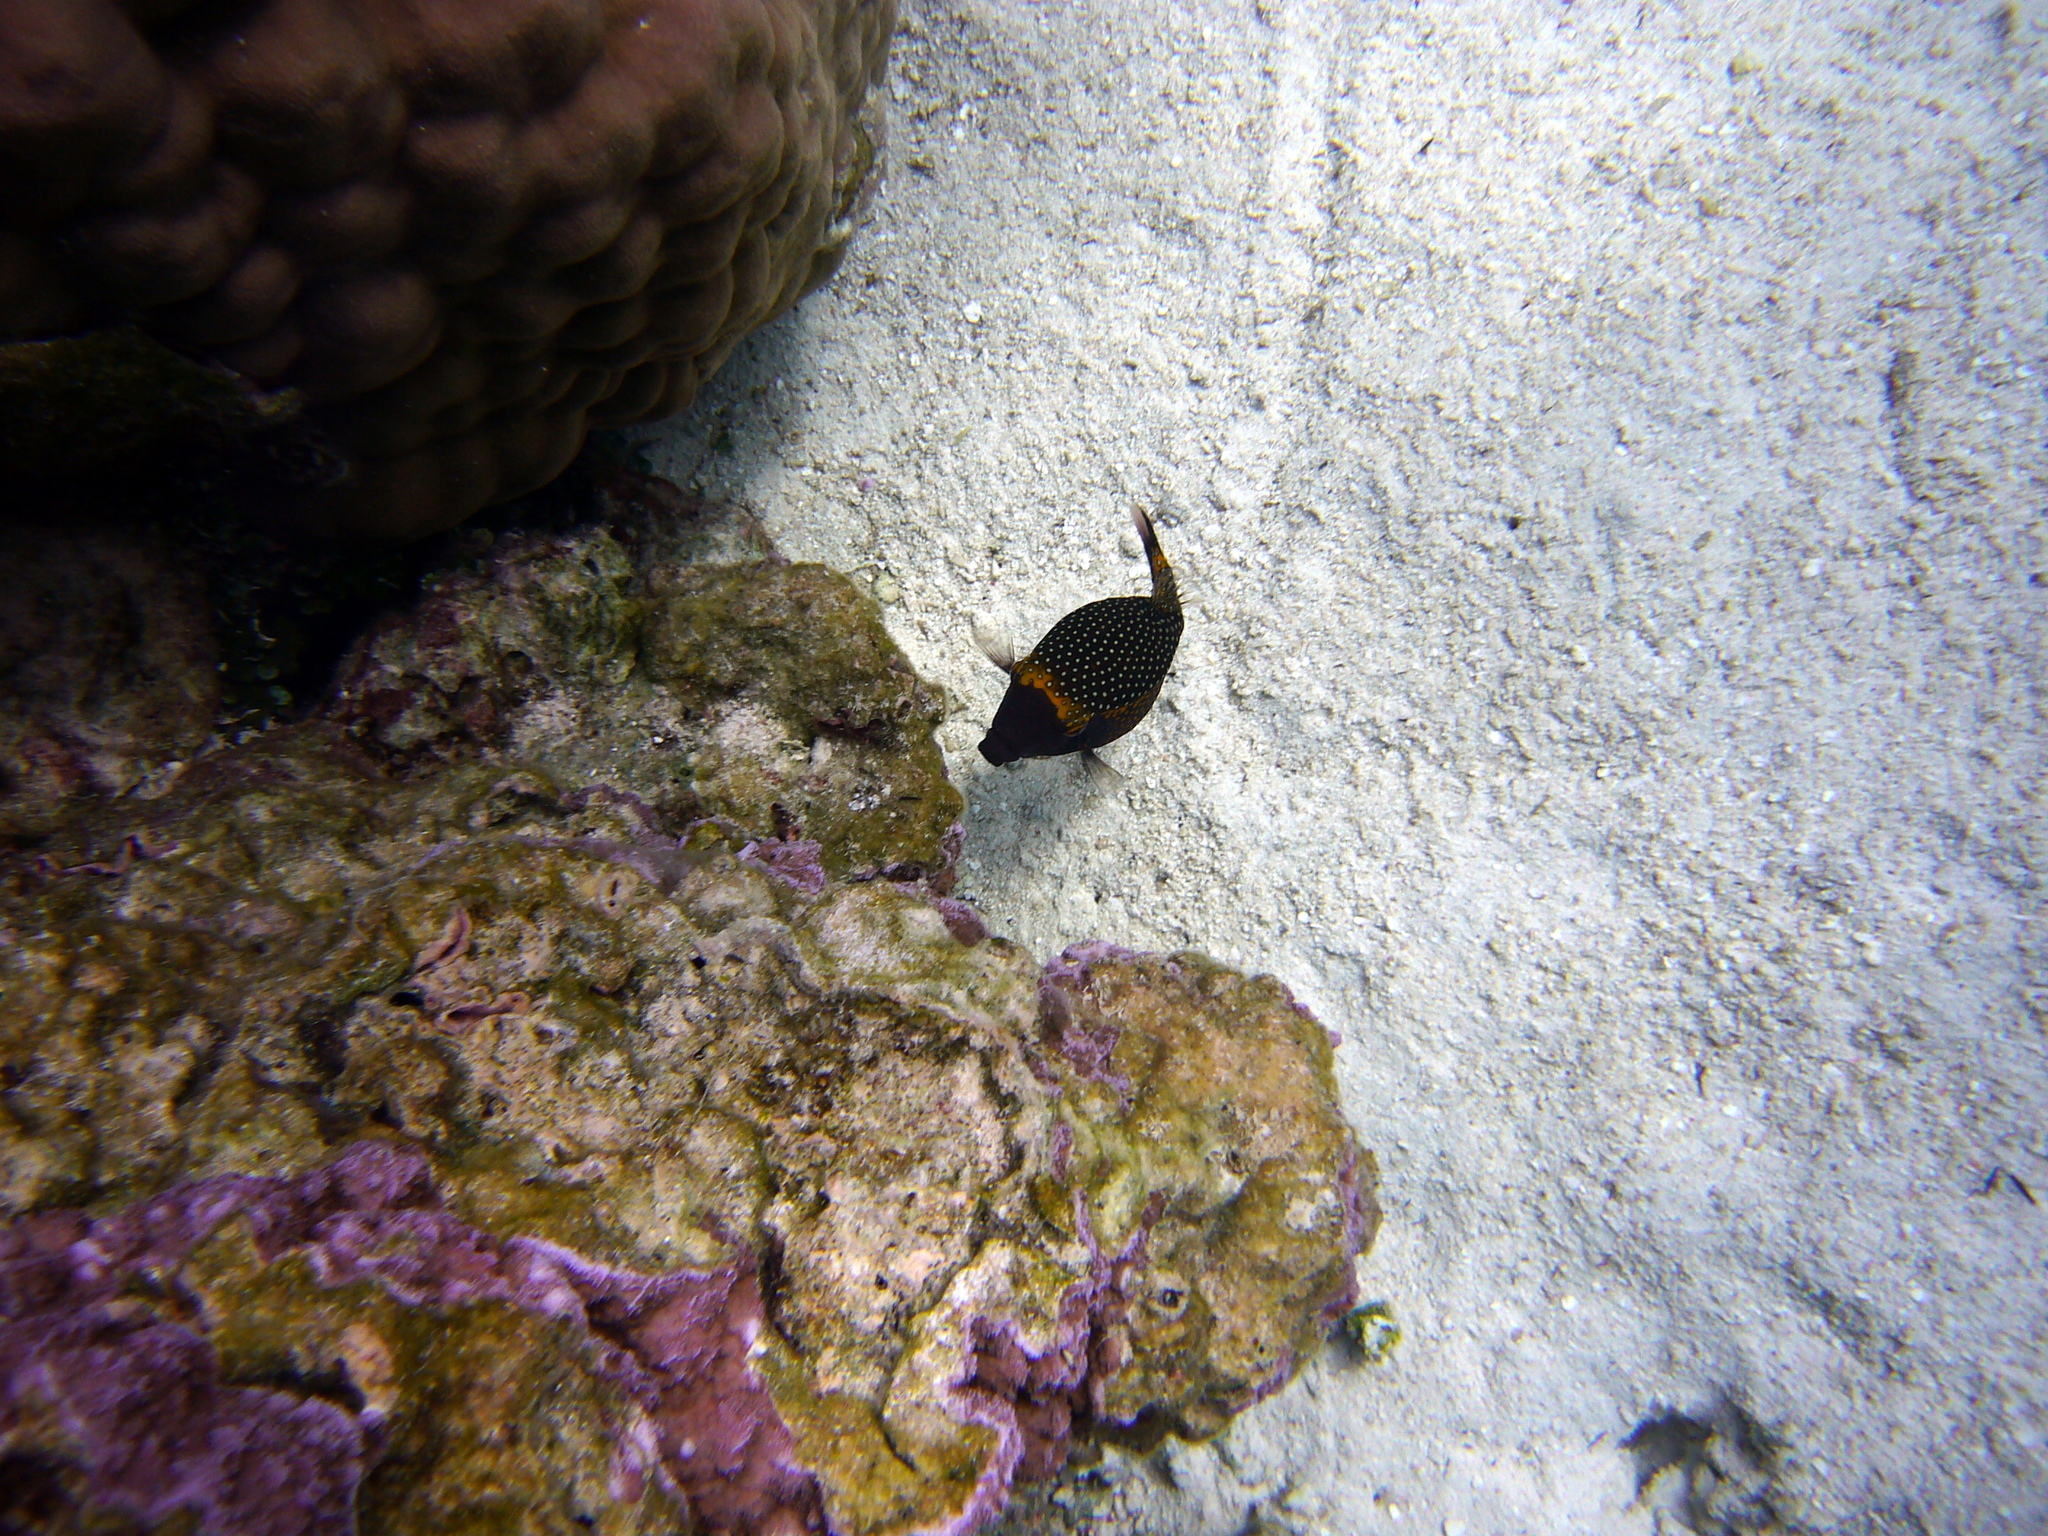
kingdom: Animalia
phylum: Chordata
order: Tetraodontiformes
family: Ostraciidae
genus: Ostracion
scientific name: Ostracion meleagris
